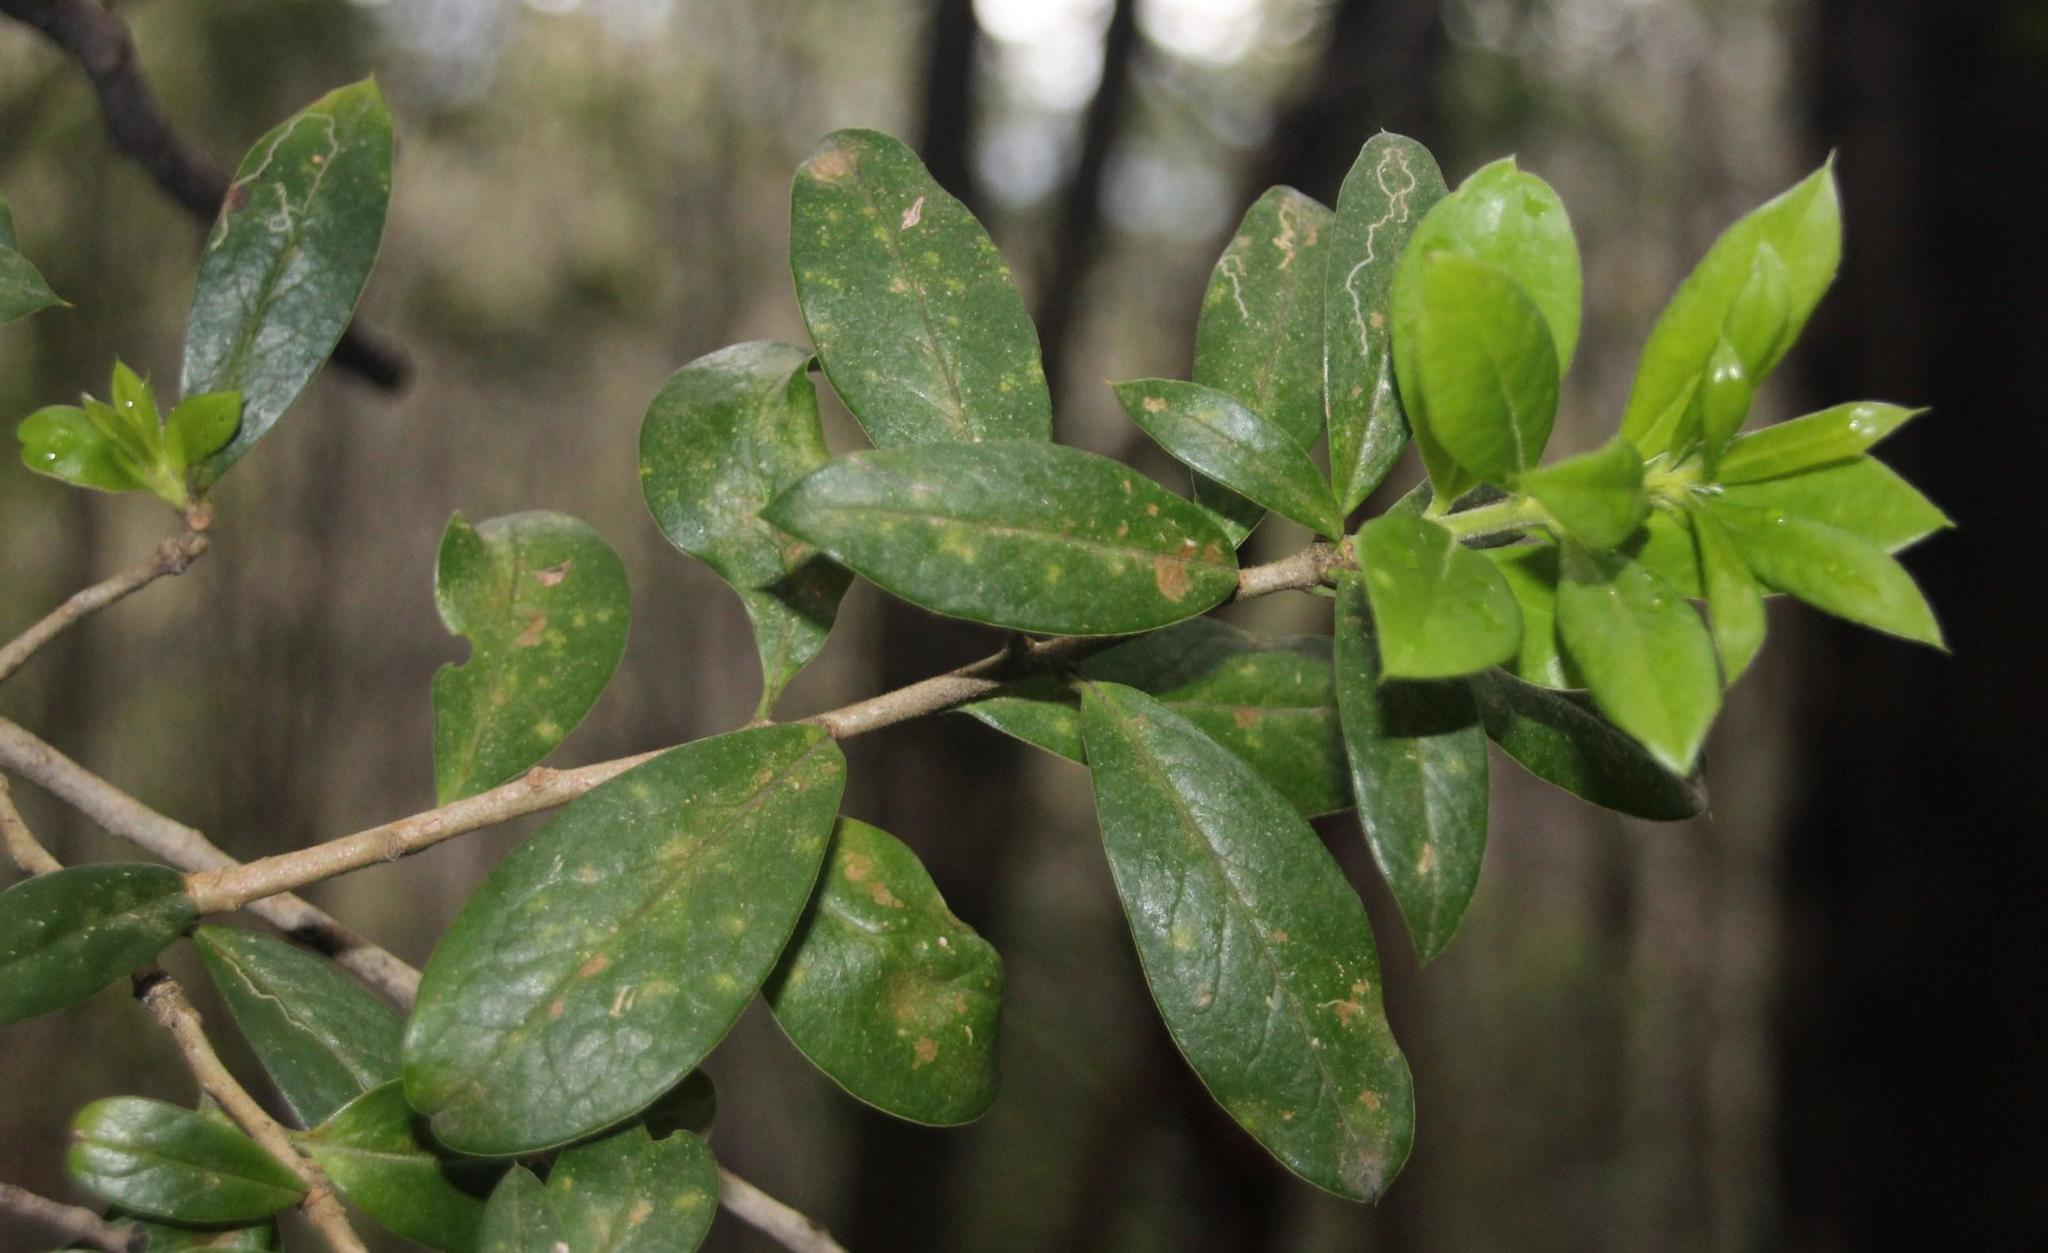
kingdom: Plantae
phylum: Tracheophyta
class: Magnoliopsida
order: Asterales
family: Asteraceae
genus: Archidasyphyllum
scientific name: Archidasyphyllum diacanthoides
